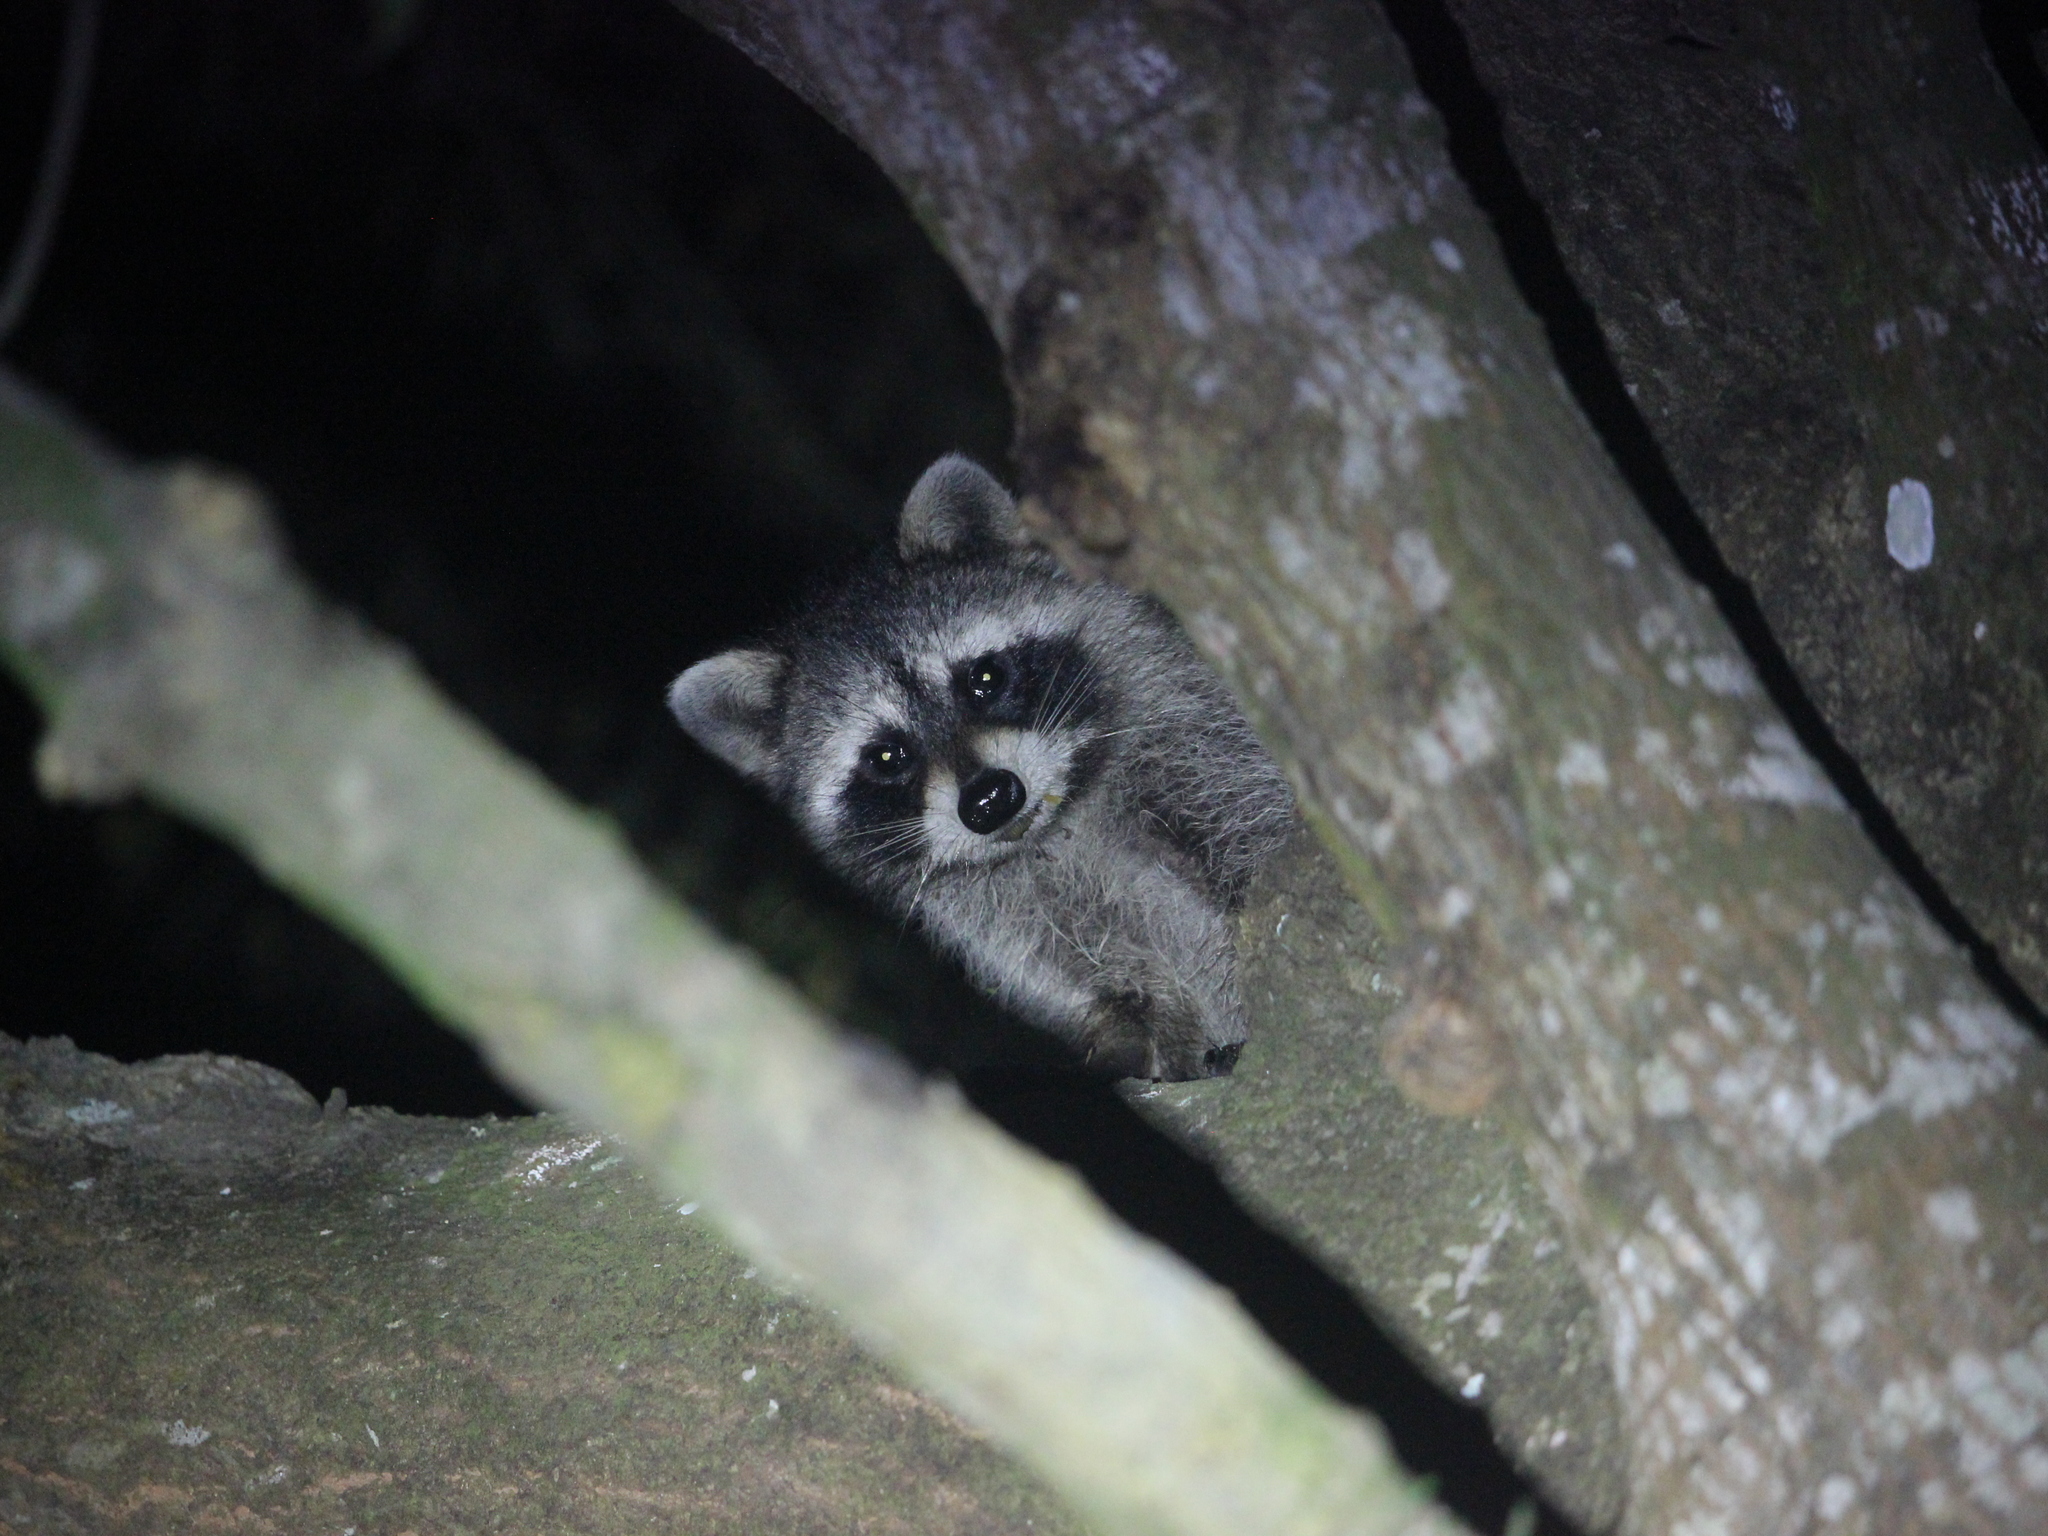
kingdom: Animalia
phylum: Chordata
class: Mammalia
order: Carnivora
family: Procyonidae
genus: Procyon
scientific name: Procyon lotor
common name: Raccoon
